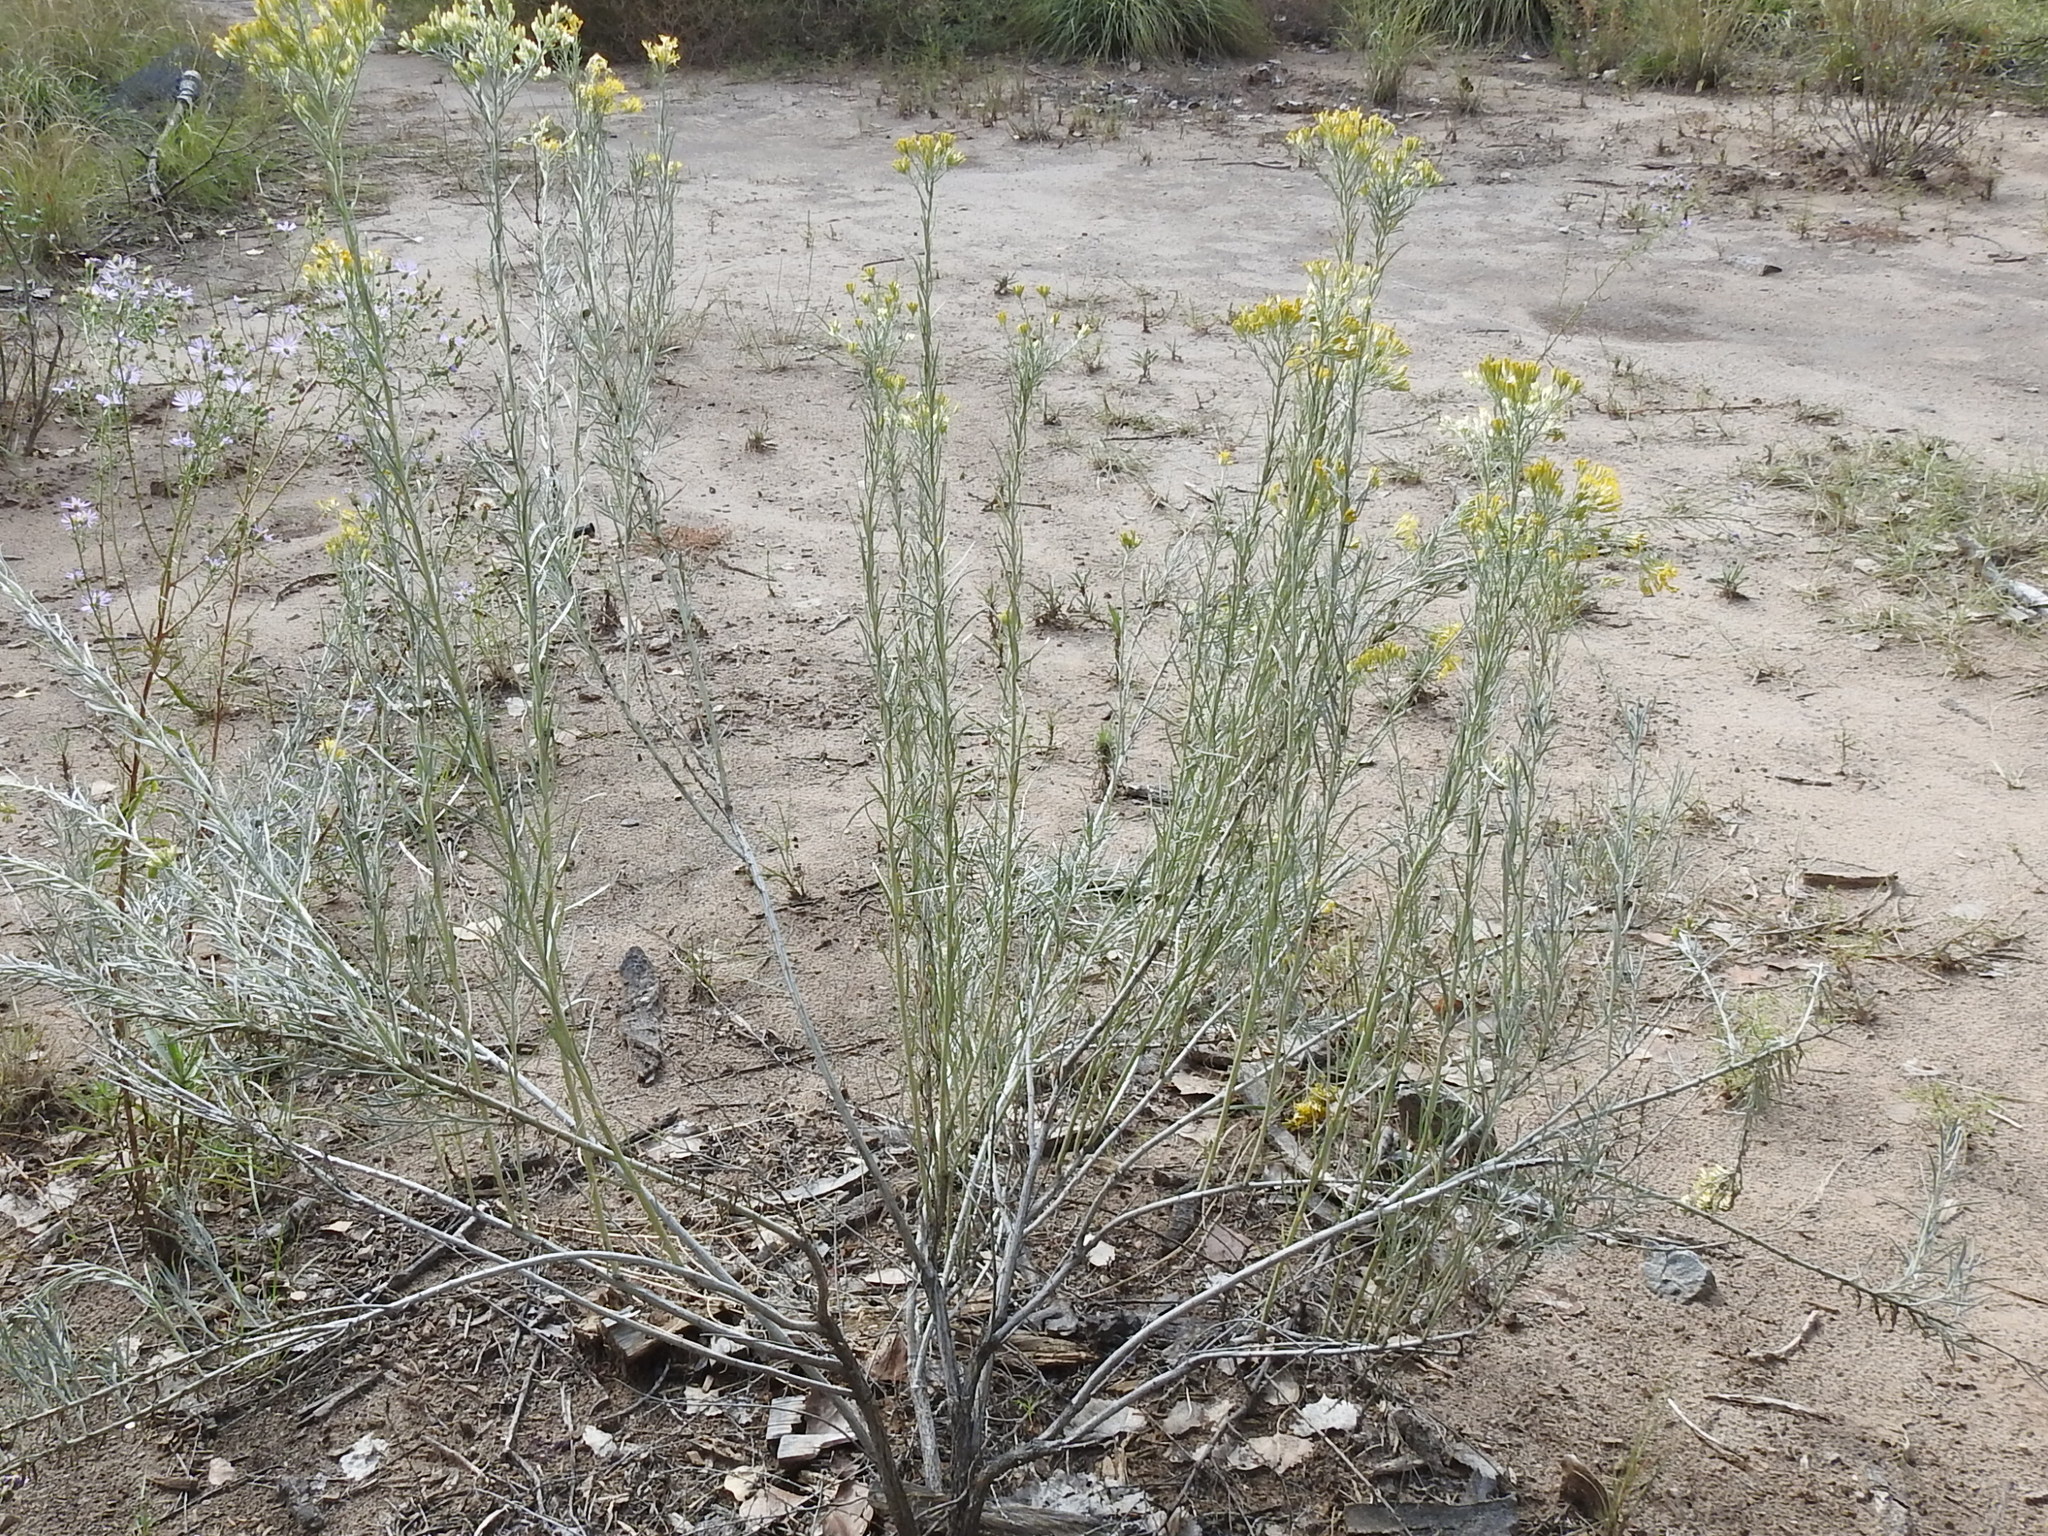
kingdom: Plantae
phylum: Tracheophyta
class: Magnoliopsida
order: Asterales
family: Asteraceae
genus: Ericameria
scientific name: Ericameria nauseosa
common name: Rubber rabbitbrush
